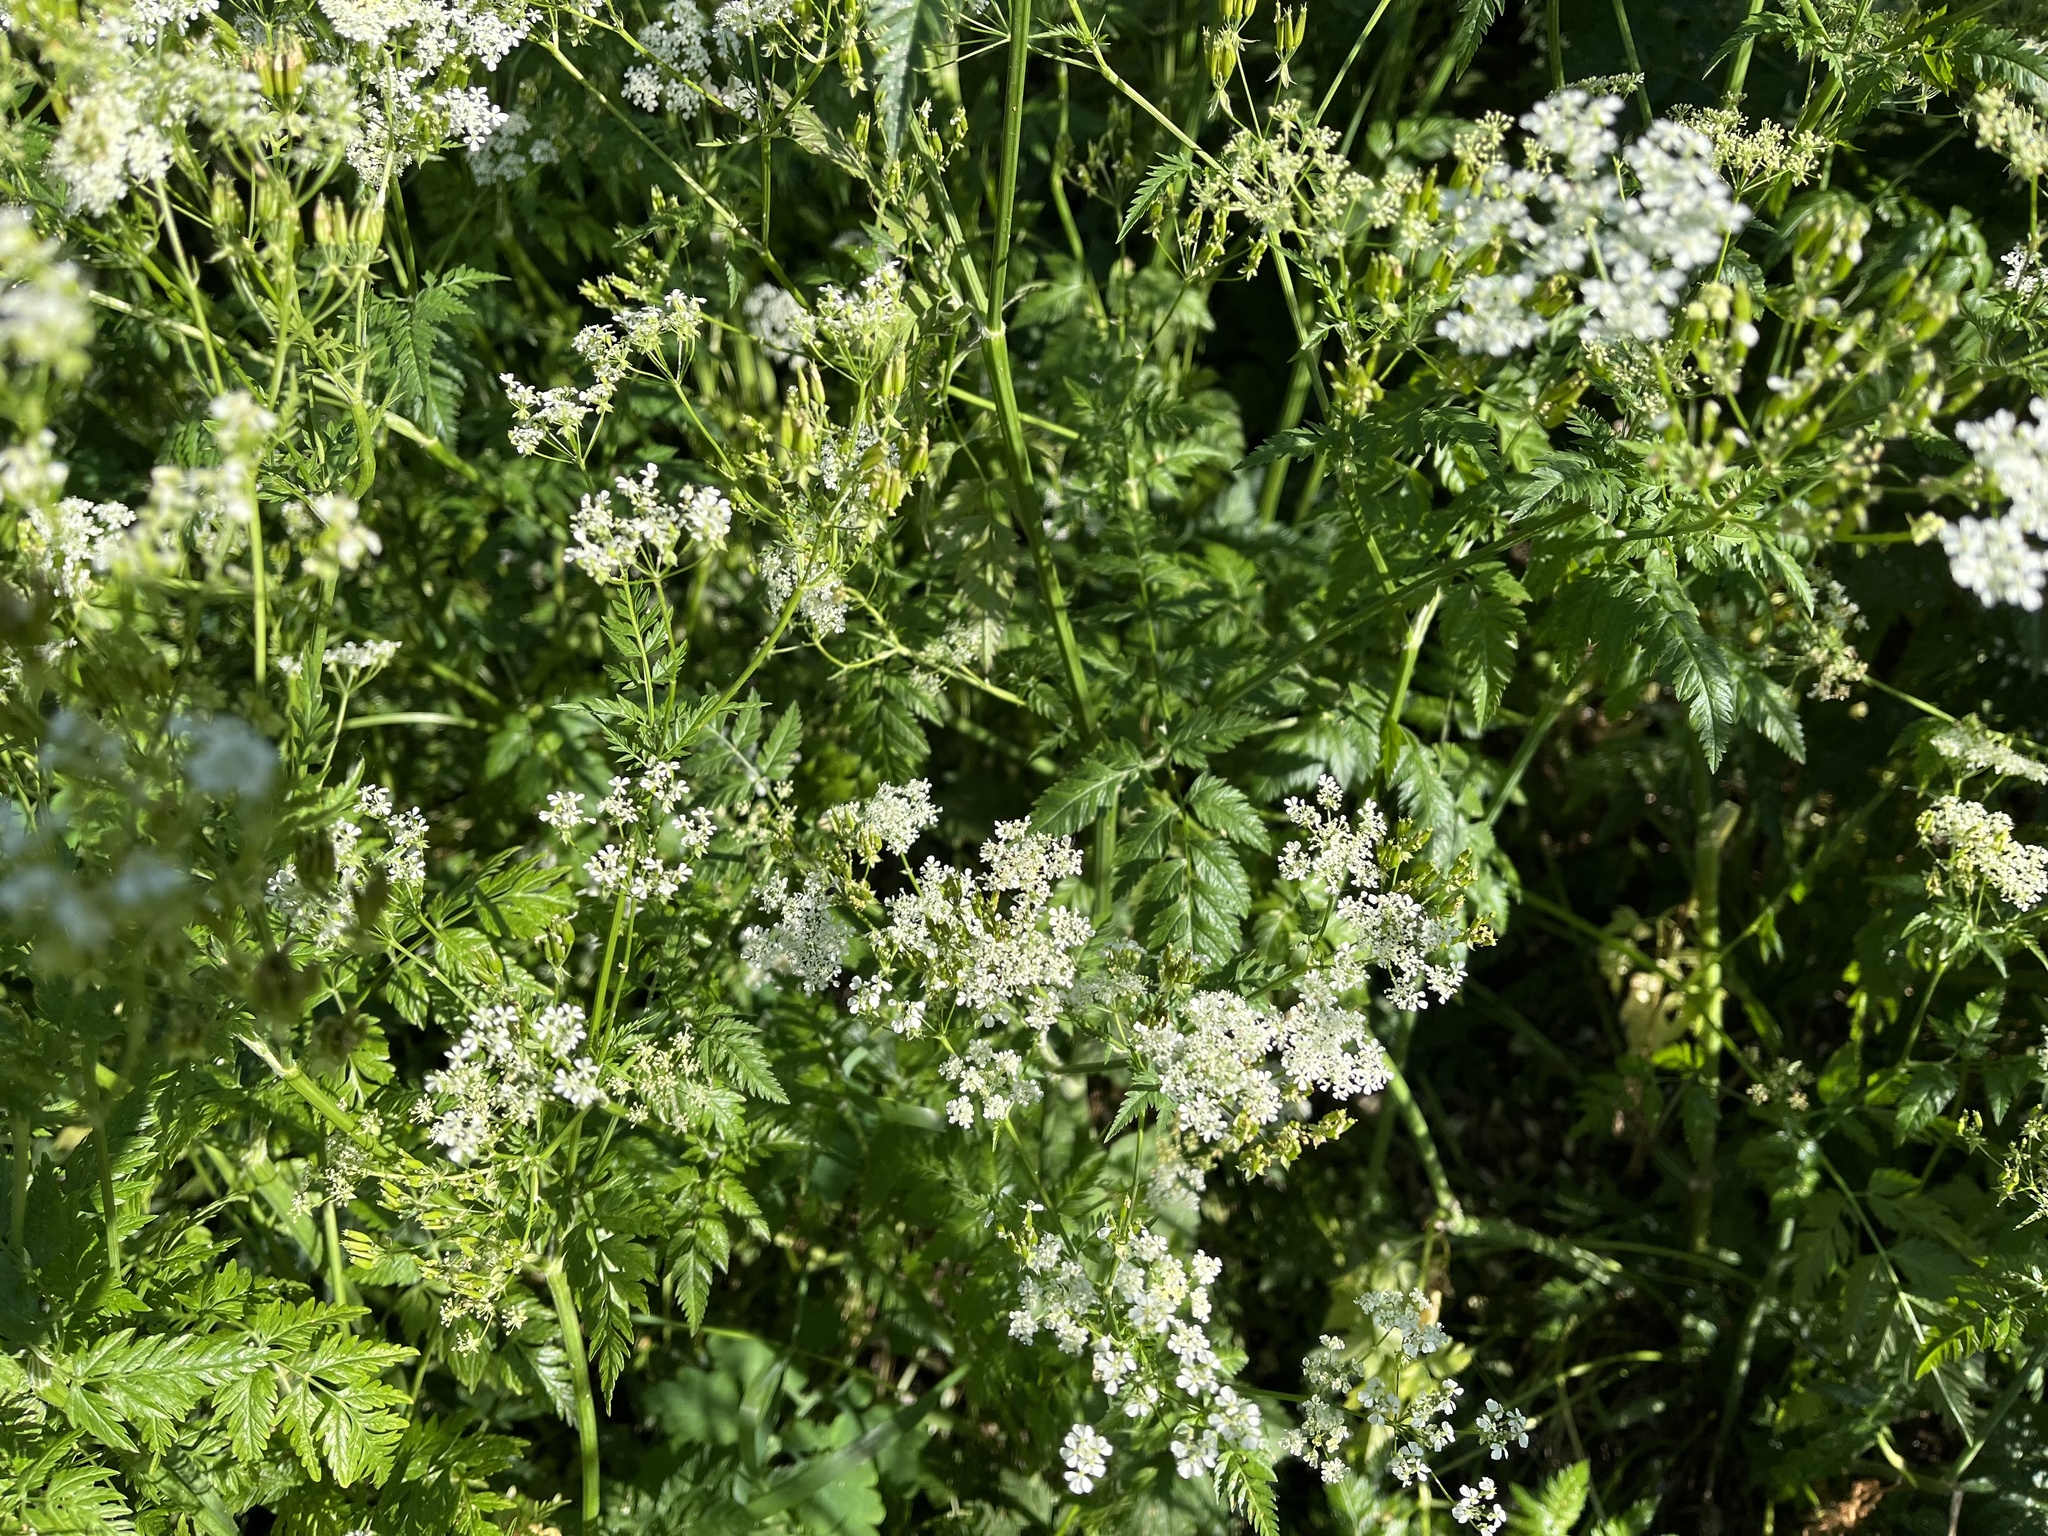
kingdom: Plantae
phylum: Tracheophyta
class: Magnoliopsida
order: Apiales
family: Apiaceae
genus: Anthriscus
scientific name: Anthriscus sylvestris
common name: Cow parsley
